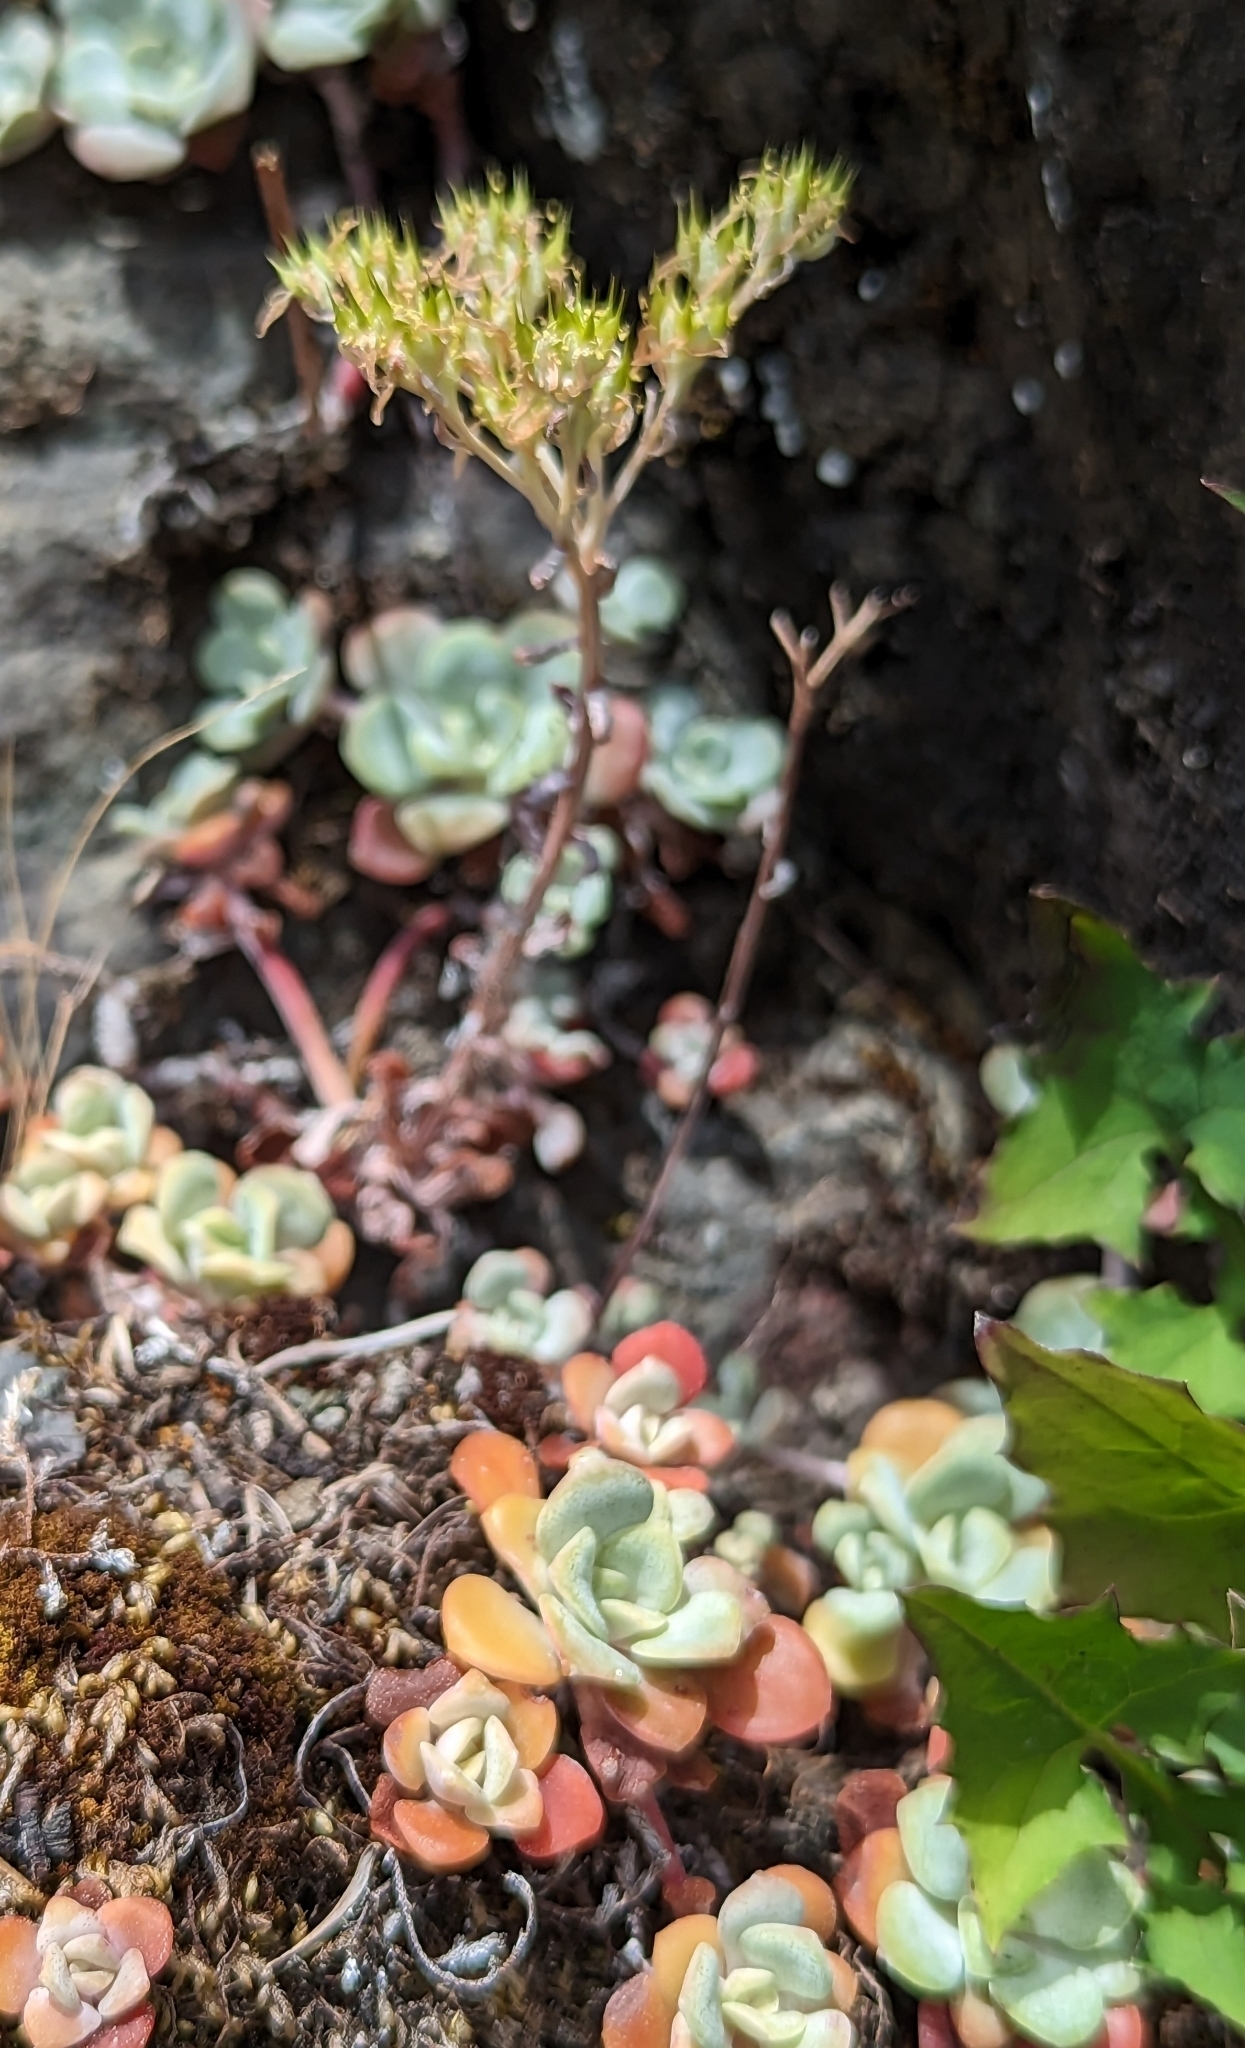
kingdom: Plantae
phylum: Tracheophyta
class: Magnoliopsida
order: Saxifragales
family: Crassulaceae
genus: Sedum
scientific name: Sedum spathulifolium
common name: Colorado stonecrop
